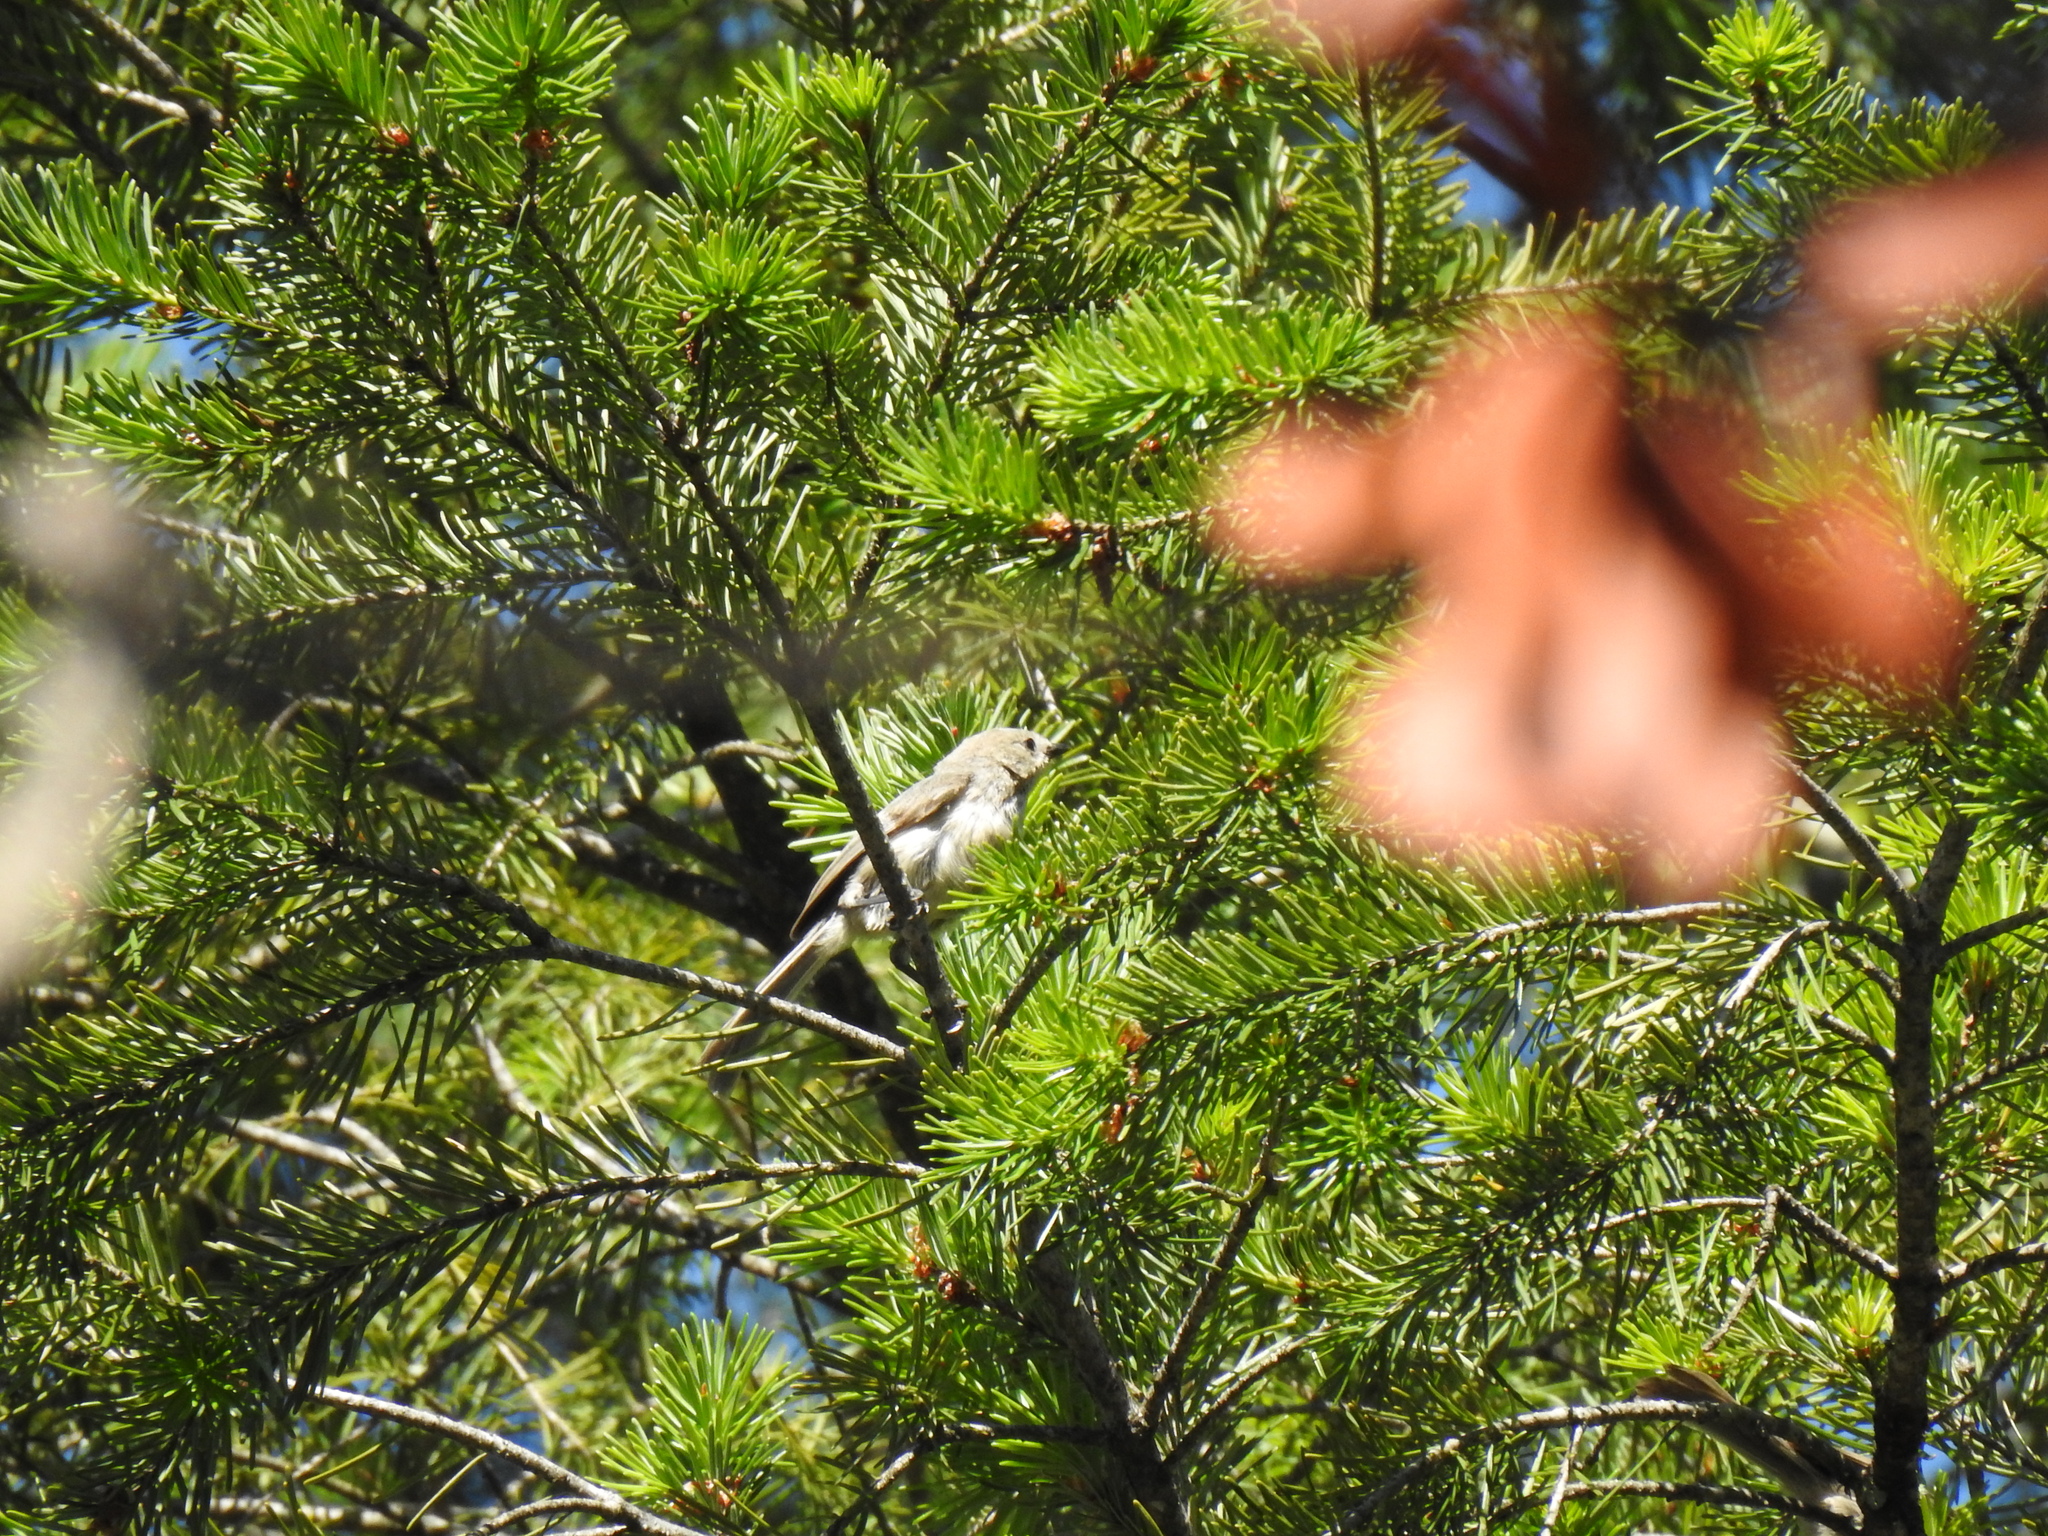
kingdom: Animalia
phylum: Chordata
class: Aves
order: Passeriformes
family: Aegithalidae
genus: Psaltriparus
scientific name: Psaltriparus minimus
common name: American bushtit
